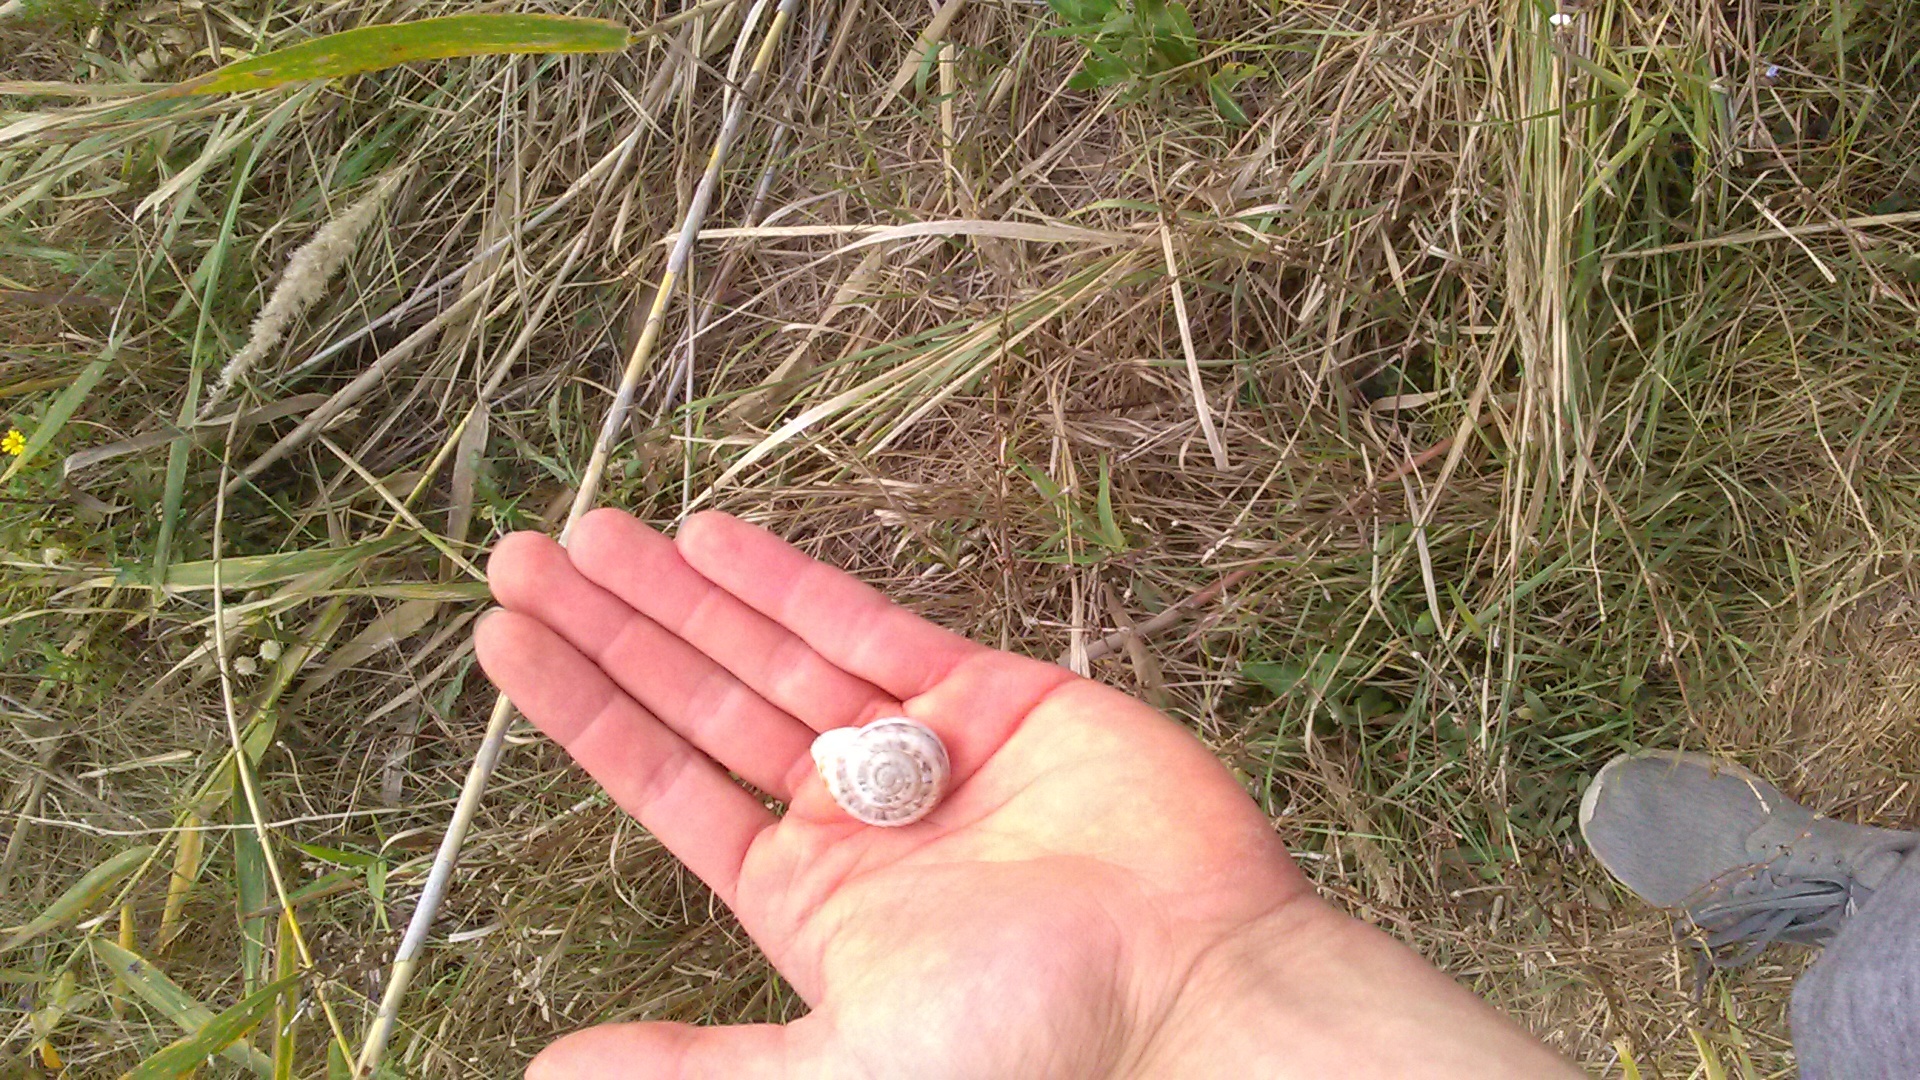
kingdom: Animalia
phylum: Mollusca
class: Gastropoda
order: Stylommatophora
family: Helicidae
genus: Eobania
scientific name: Eobania vermiculata
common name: Chocolateband snail
